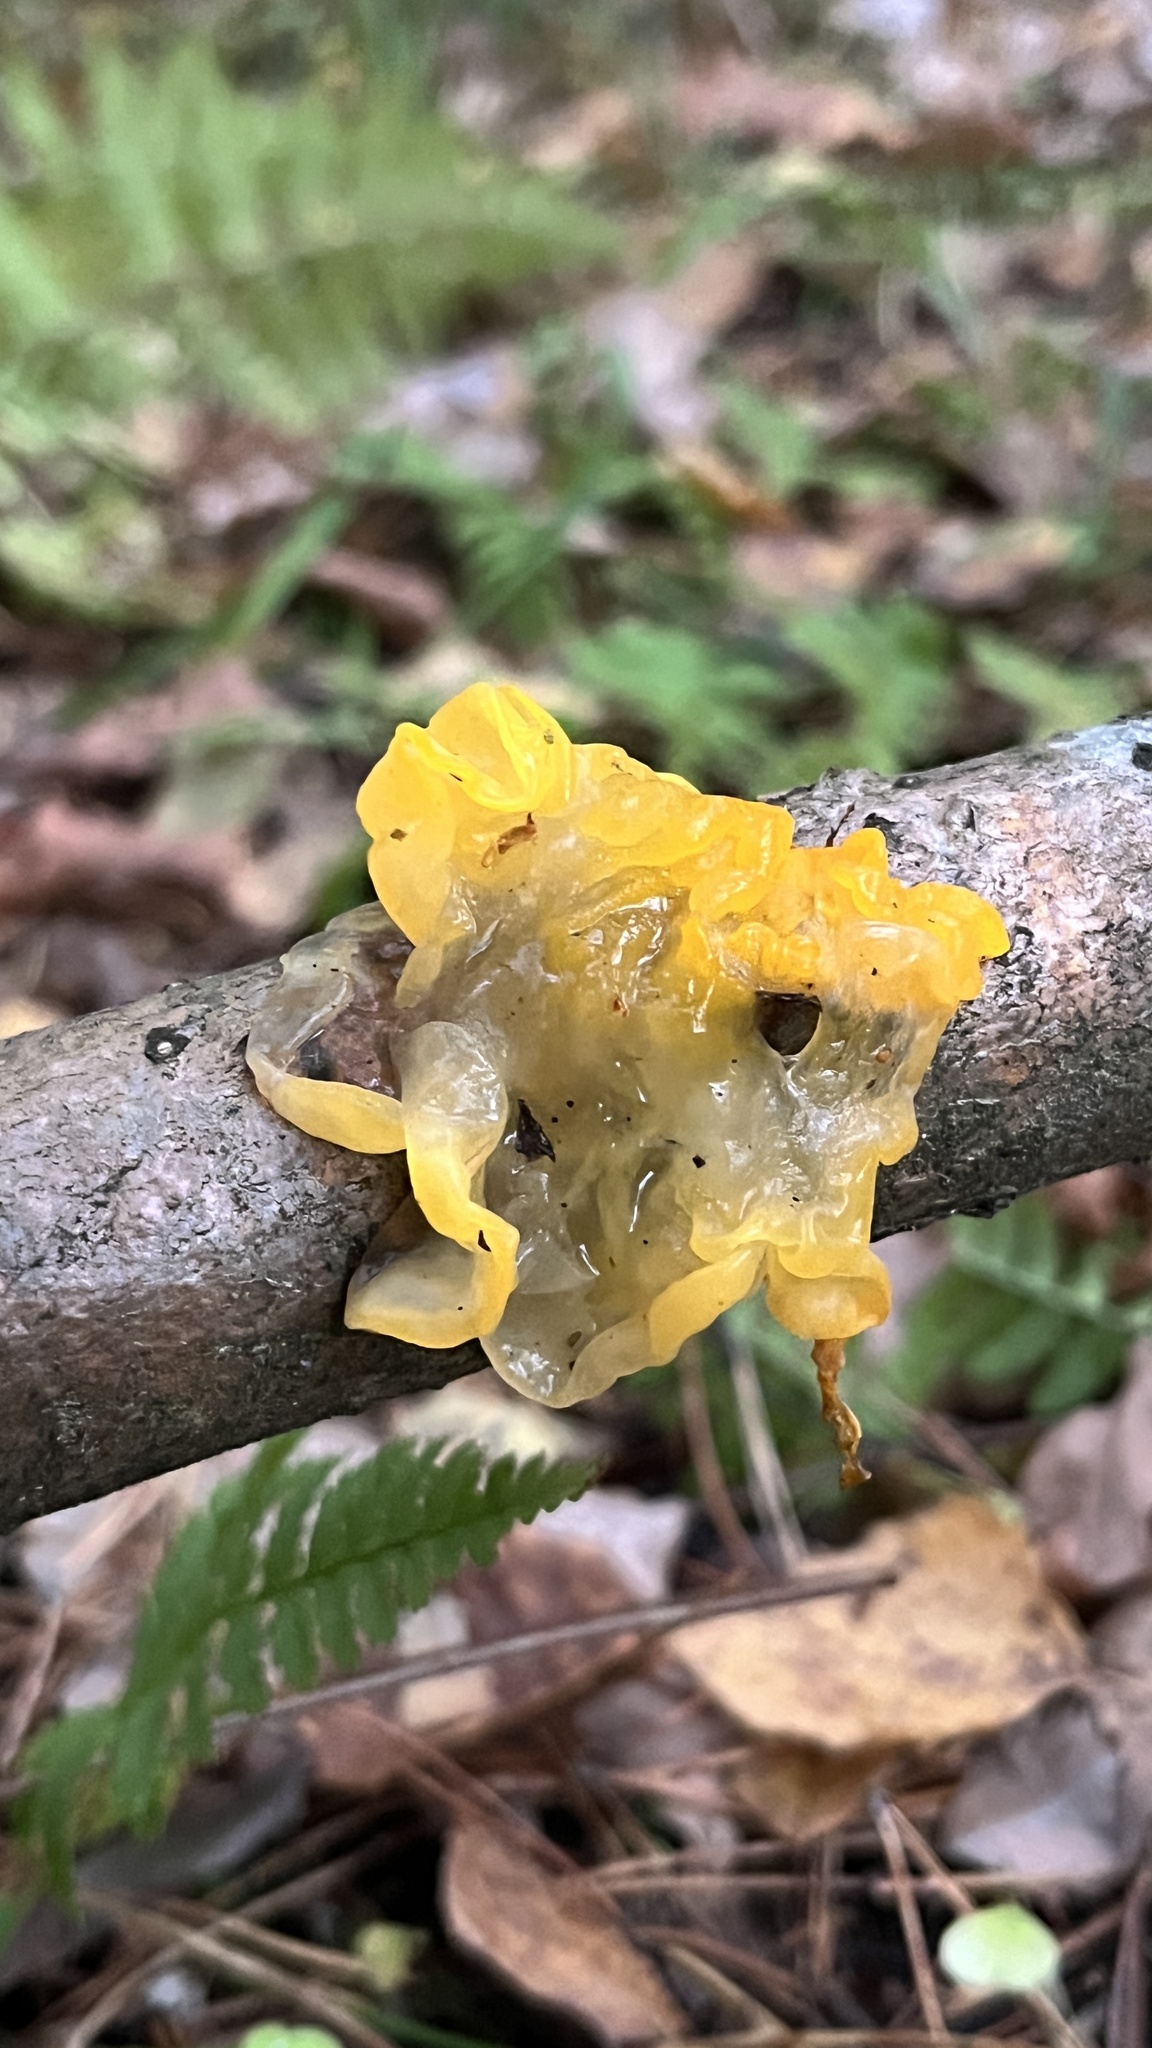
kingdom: Fungi
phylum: Basidiomycota
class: Tremellomycetes
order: Tremellales
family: Tremellaceae
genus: Tremella
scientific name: Tremella mesenterica
